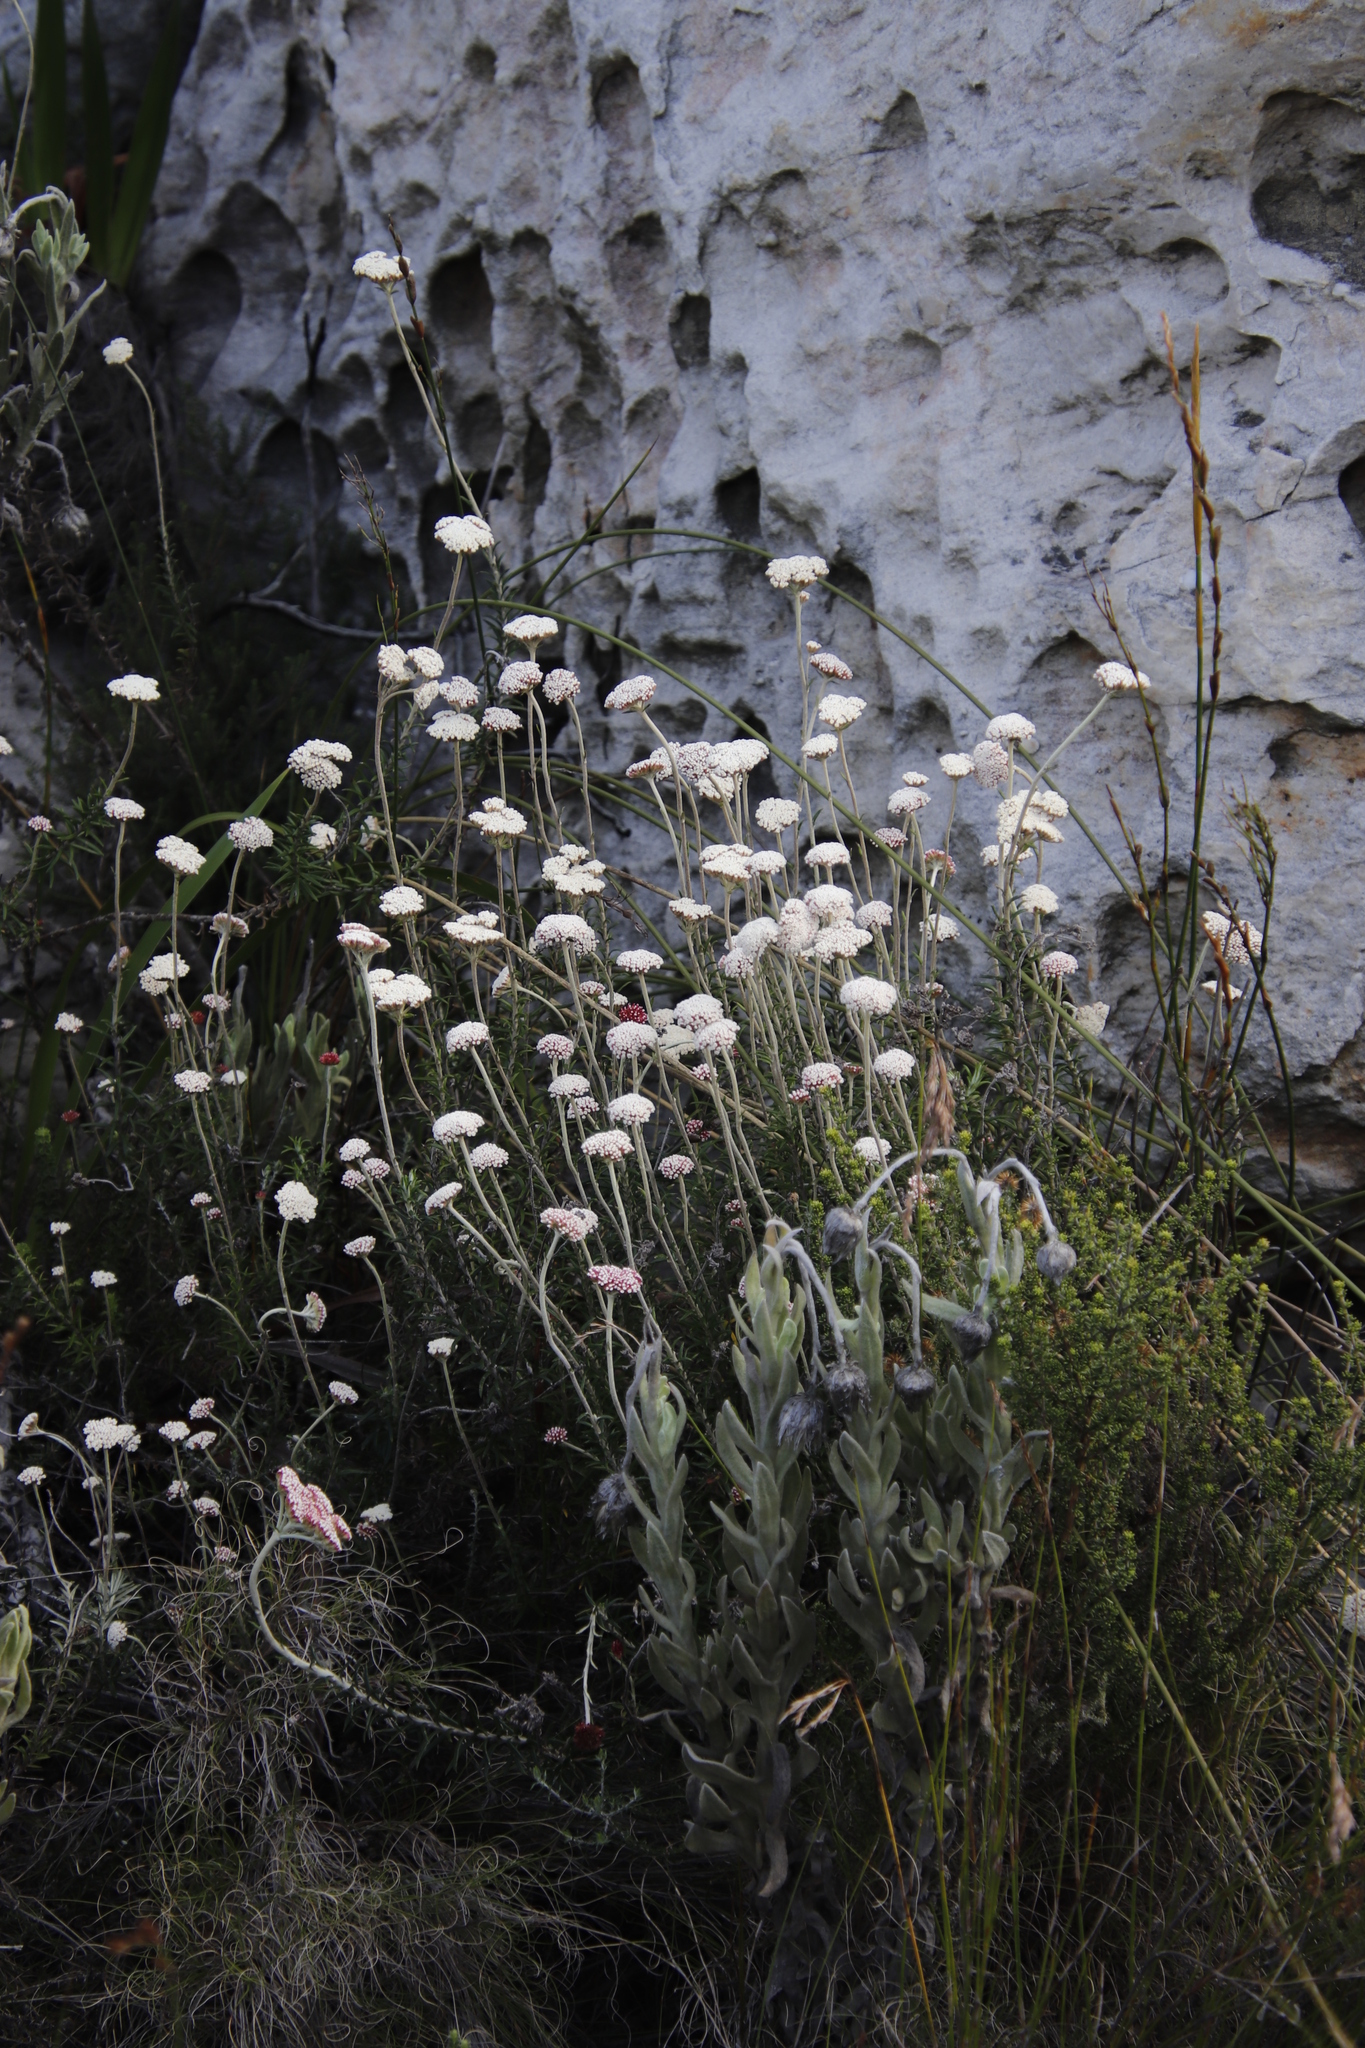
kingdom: Plantae
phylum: Tracheophyta
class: Magnoliopsida
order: Asterales
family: Asteraceae
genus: Anaxeton
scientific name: Anaxeton arborescens
